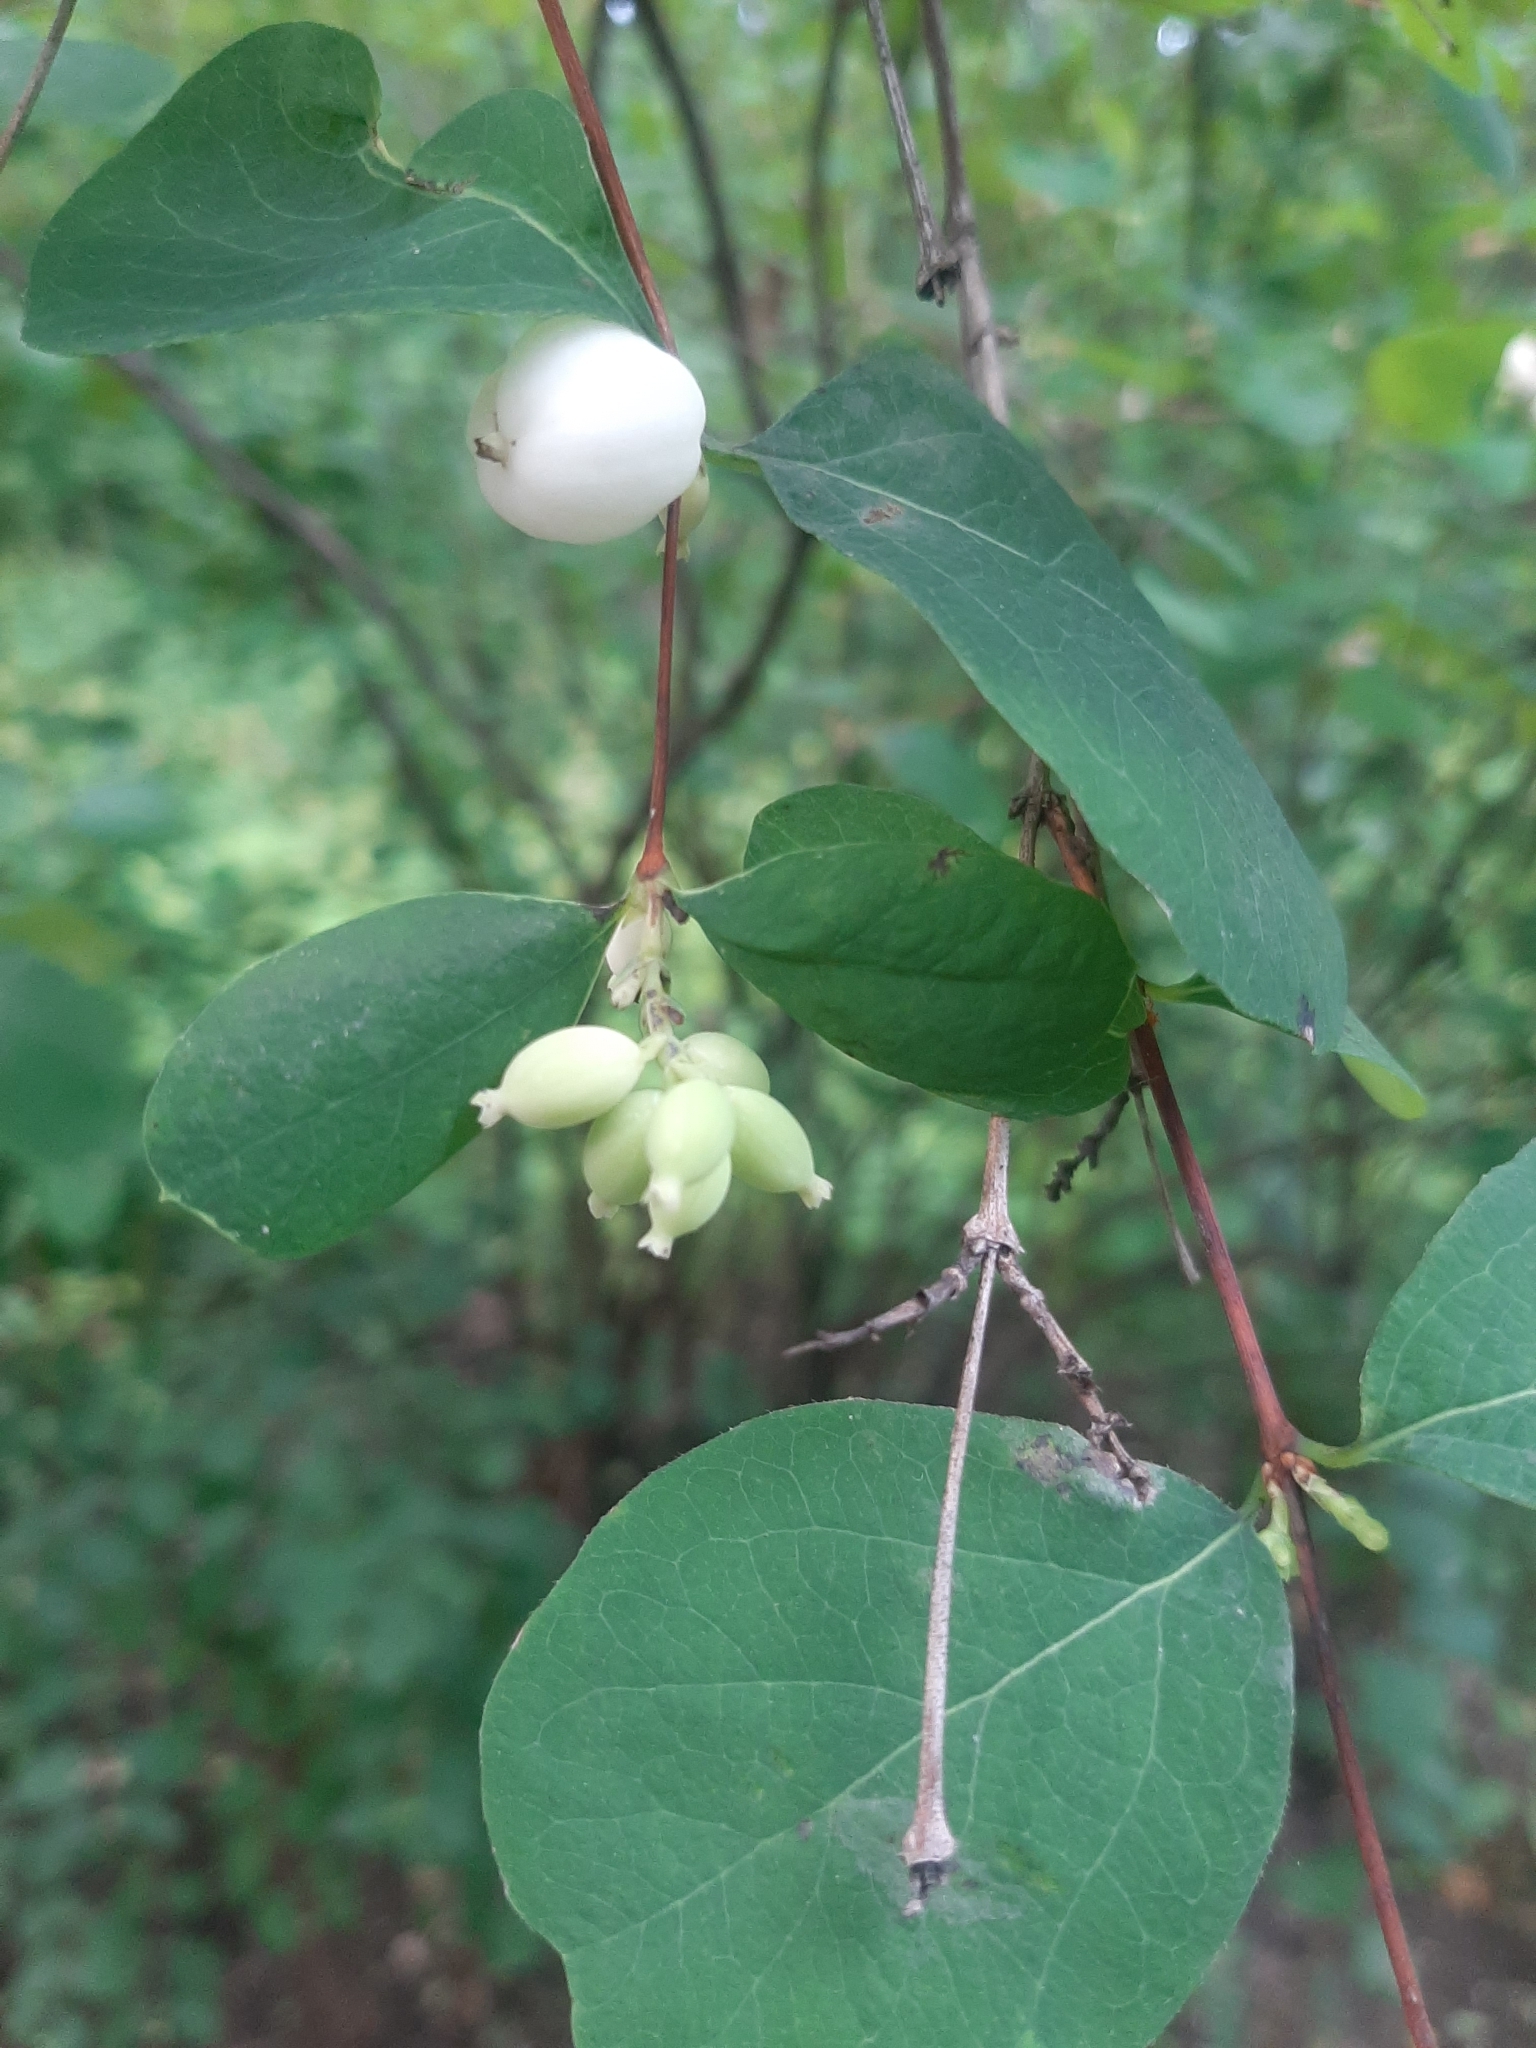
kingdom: Plantae
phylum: Tracheophyta
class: Magnoliopsida
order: Dipsacales
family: Caprifoliaceae
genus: Symphoricarpos
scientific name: Symphoricarpos albus
